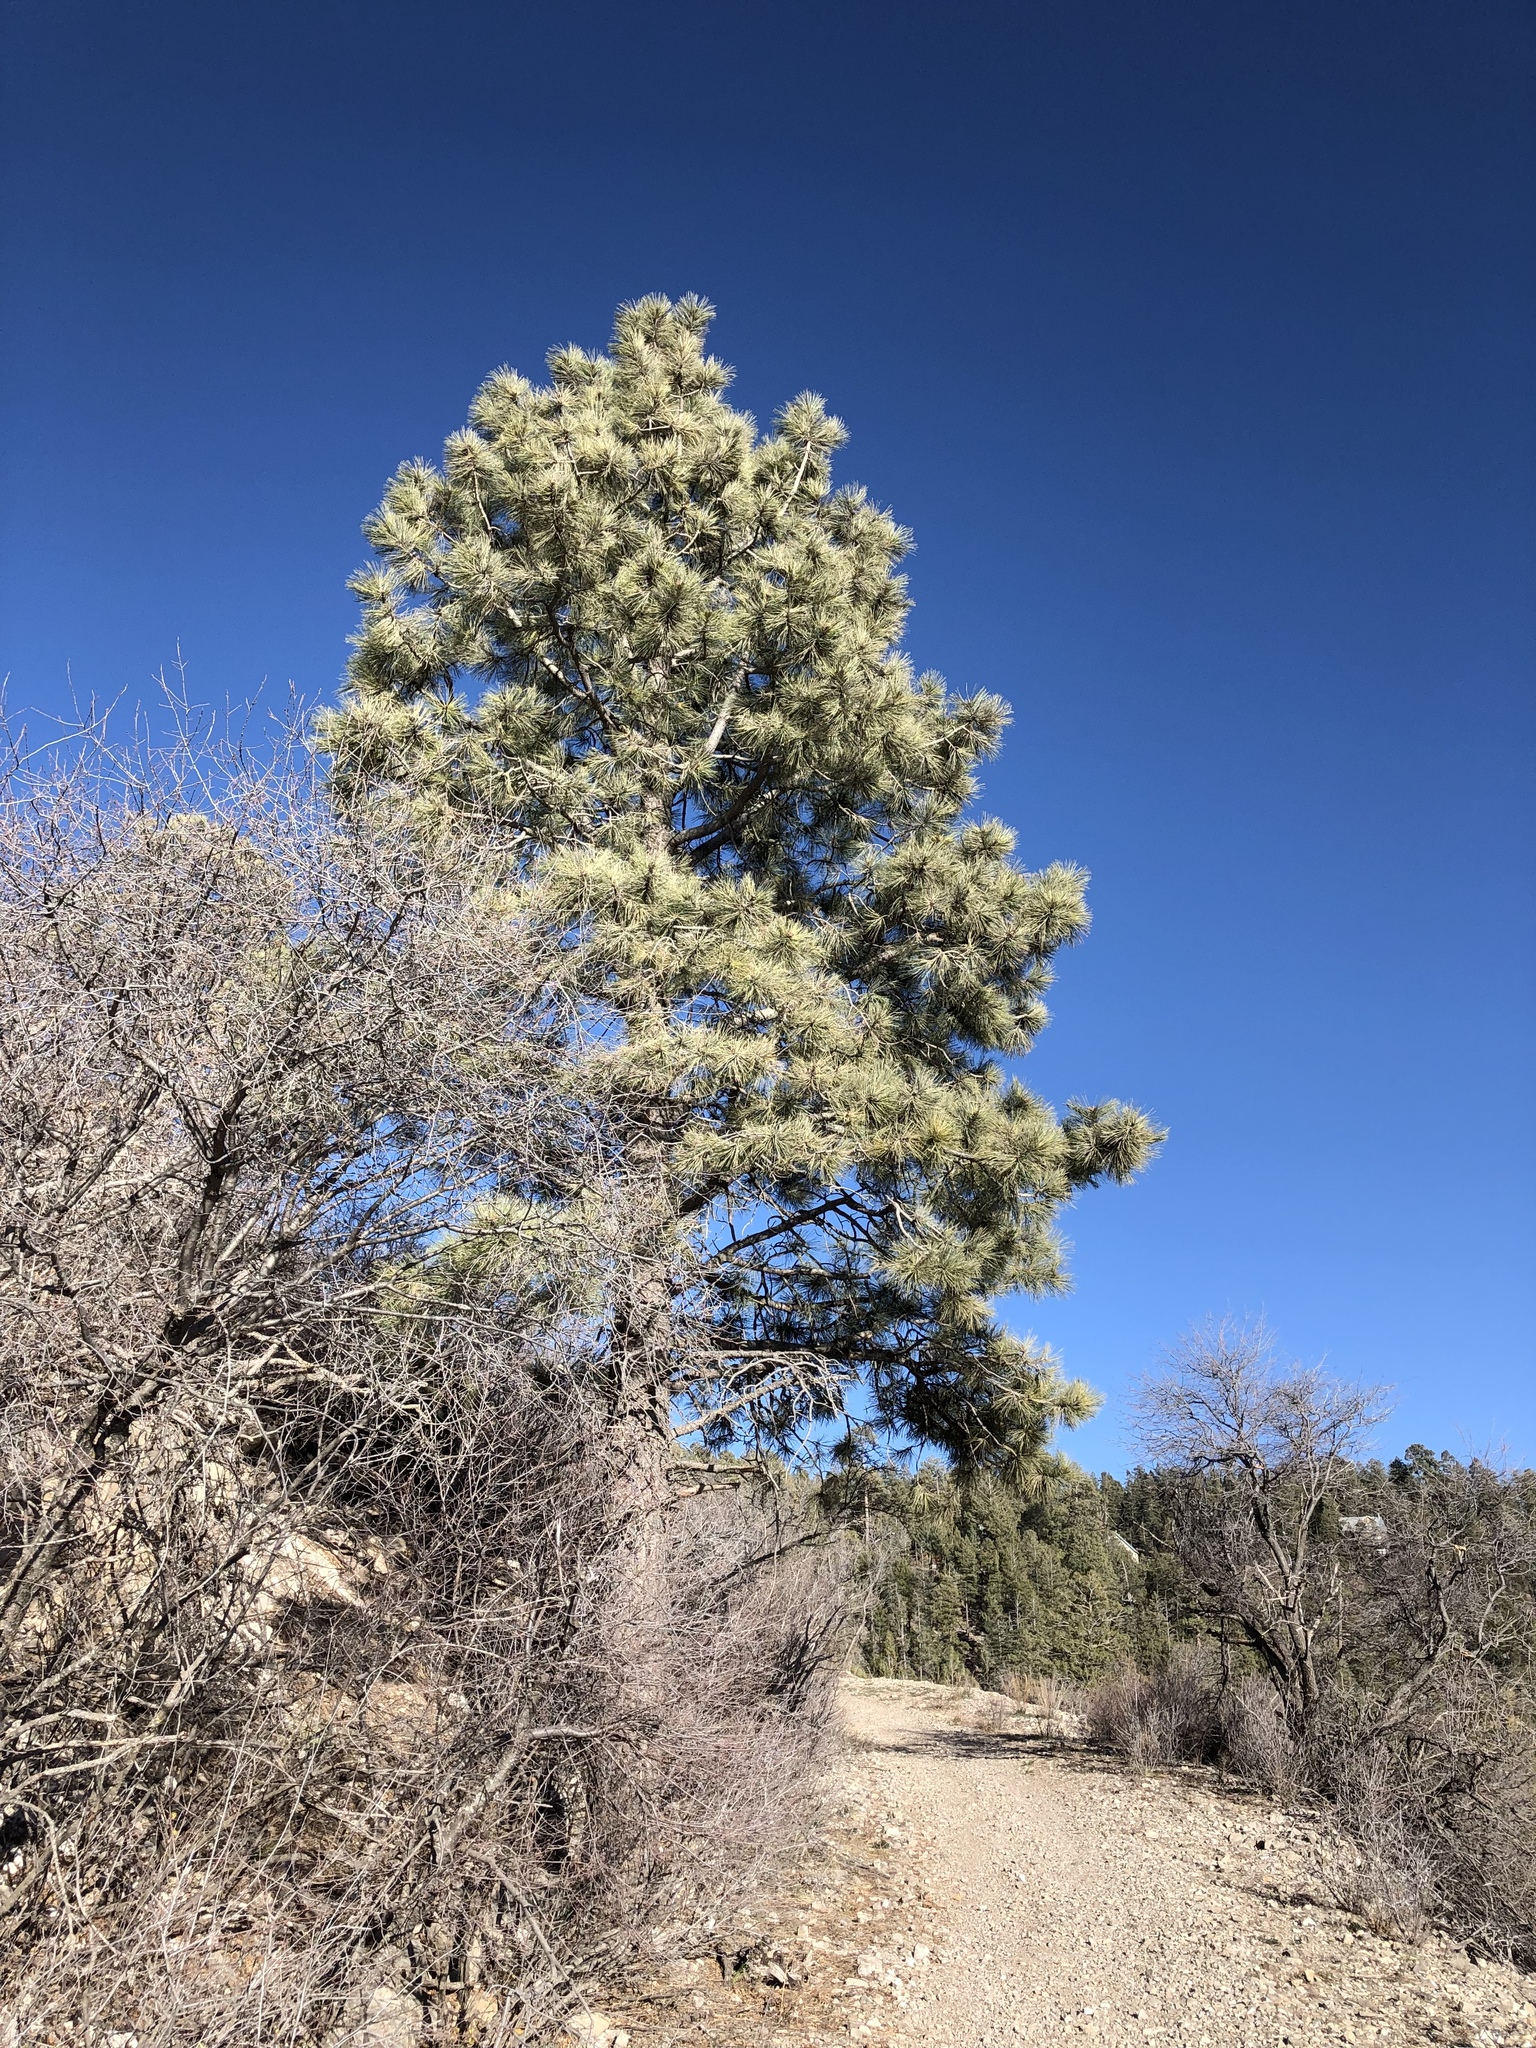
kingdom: Plantae
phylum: Tracheophyta
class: Pinopsida
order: Pinales
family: Pinaceae
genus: Pinus
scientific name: Pinus ponderosa
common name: Western yellow-pine
